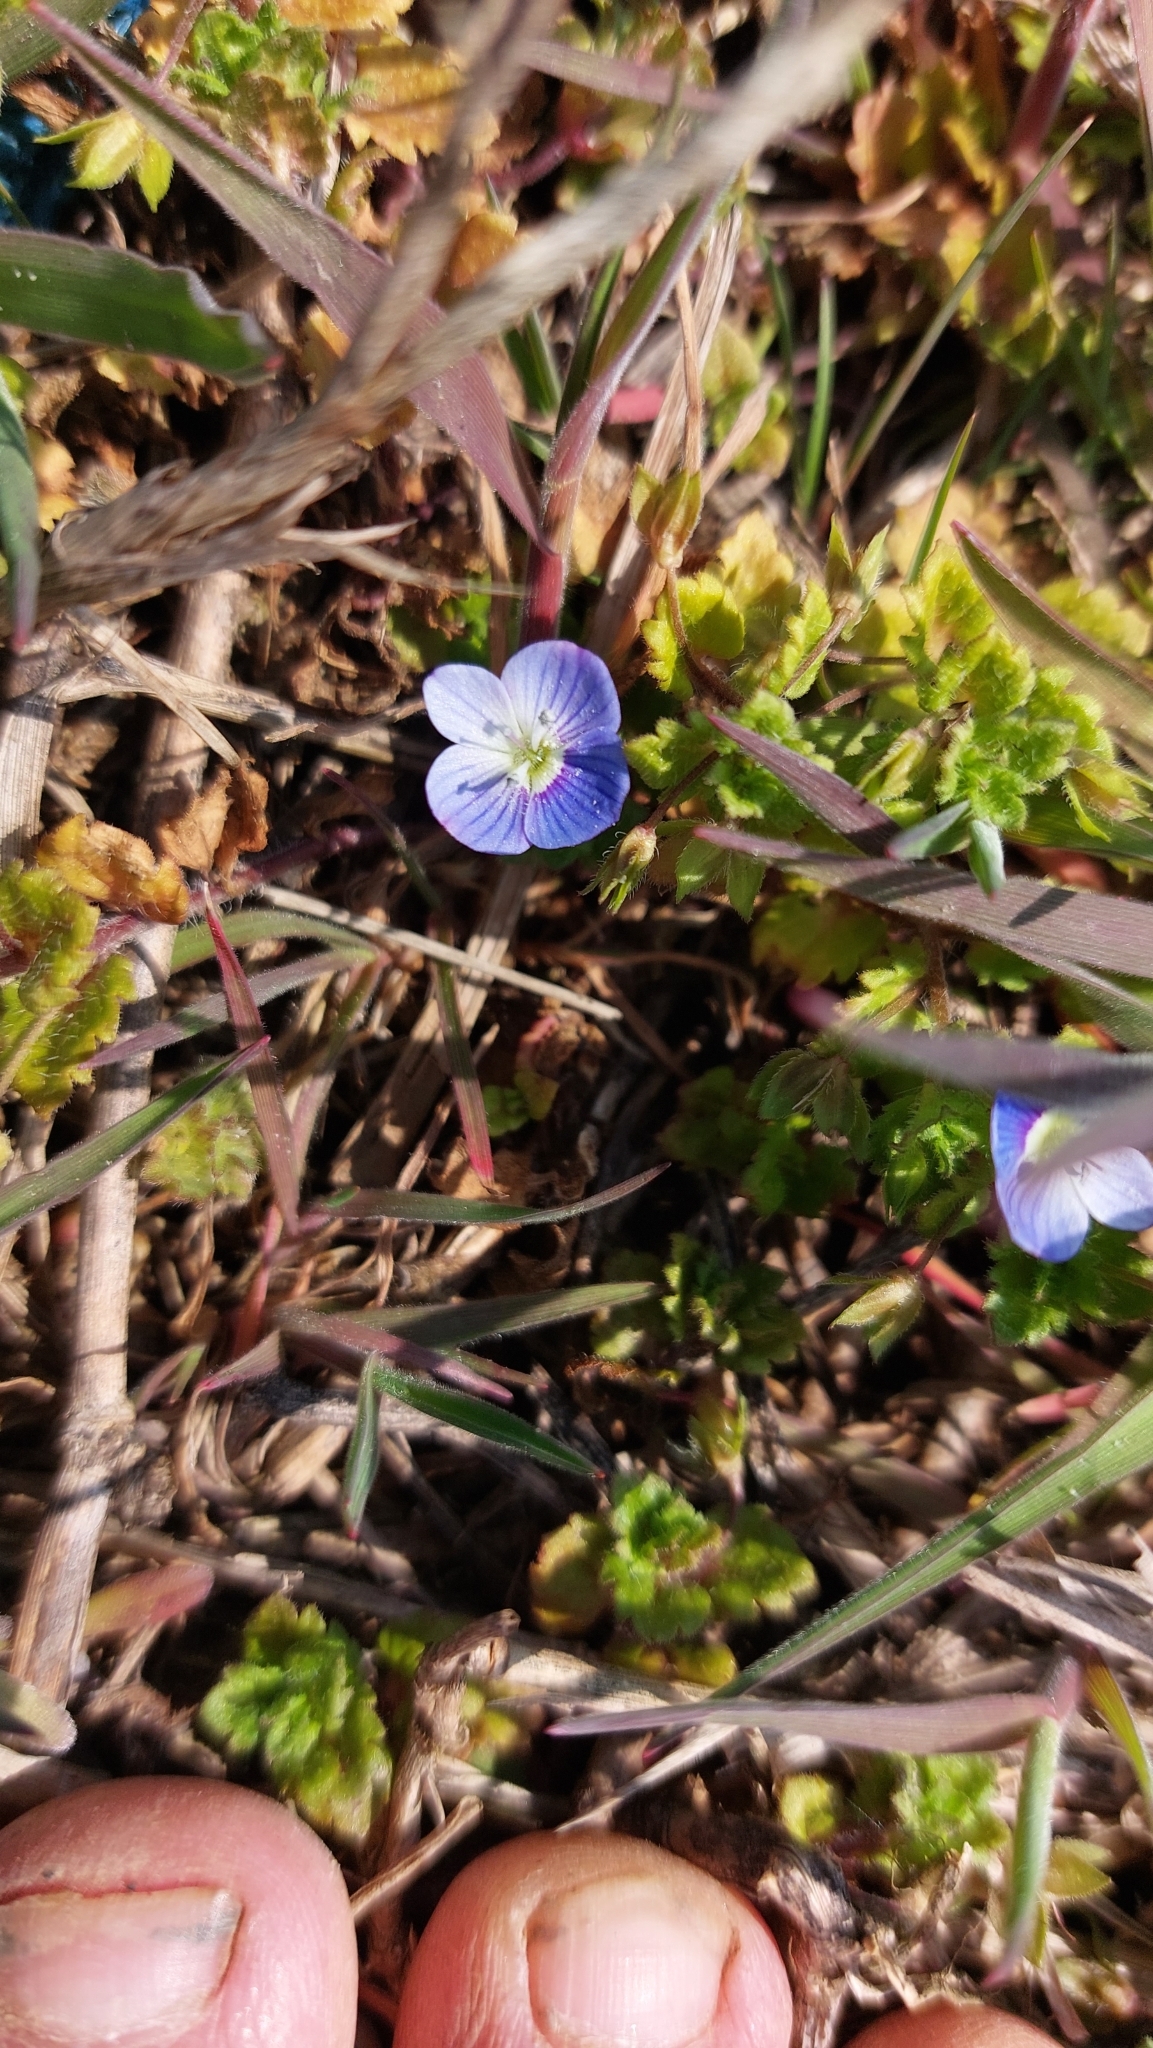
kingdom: Plantae
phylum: Tracheophyta
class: Magnoliopsida
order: Lamiales
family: Plantaginaceae
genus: Veronica
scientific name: Veronica persica
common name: Common field-speedwell
